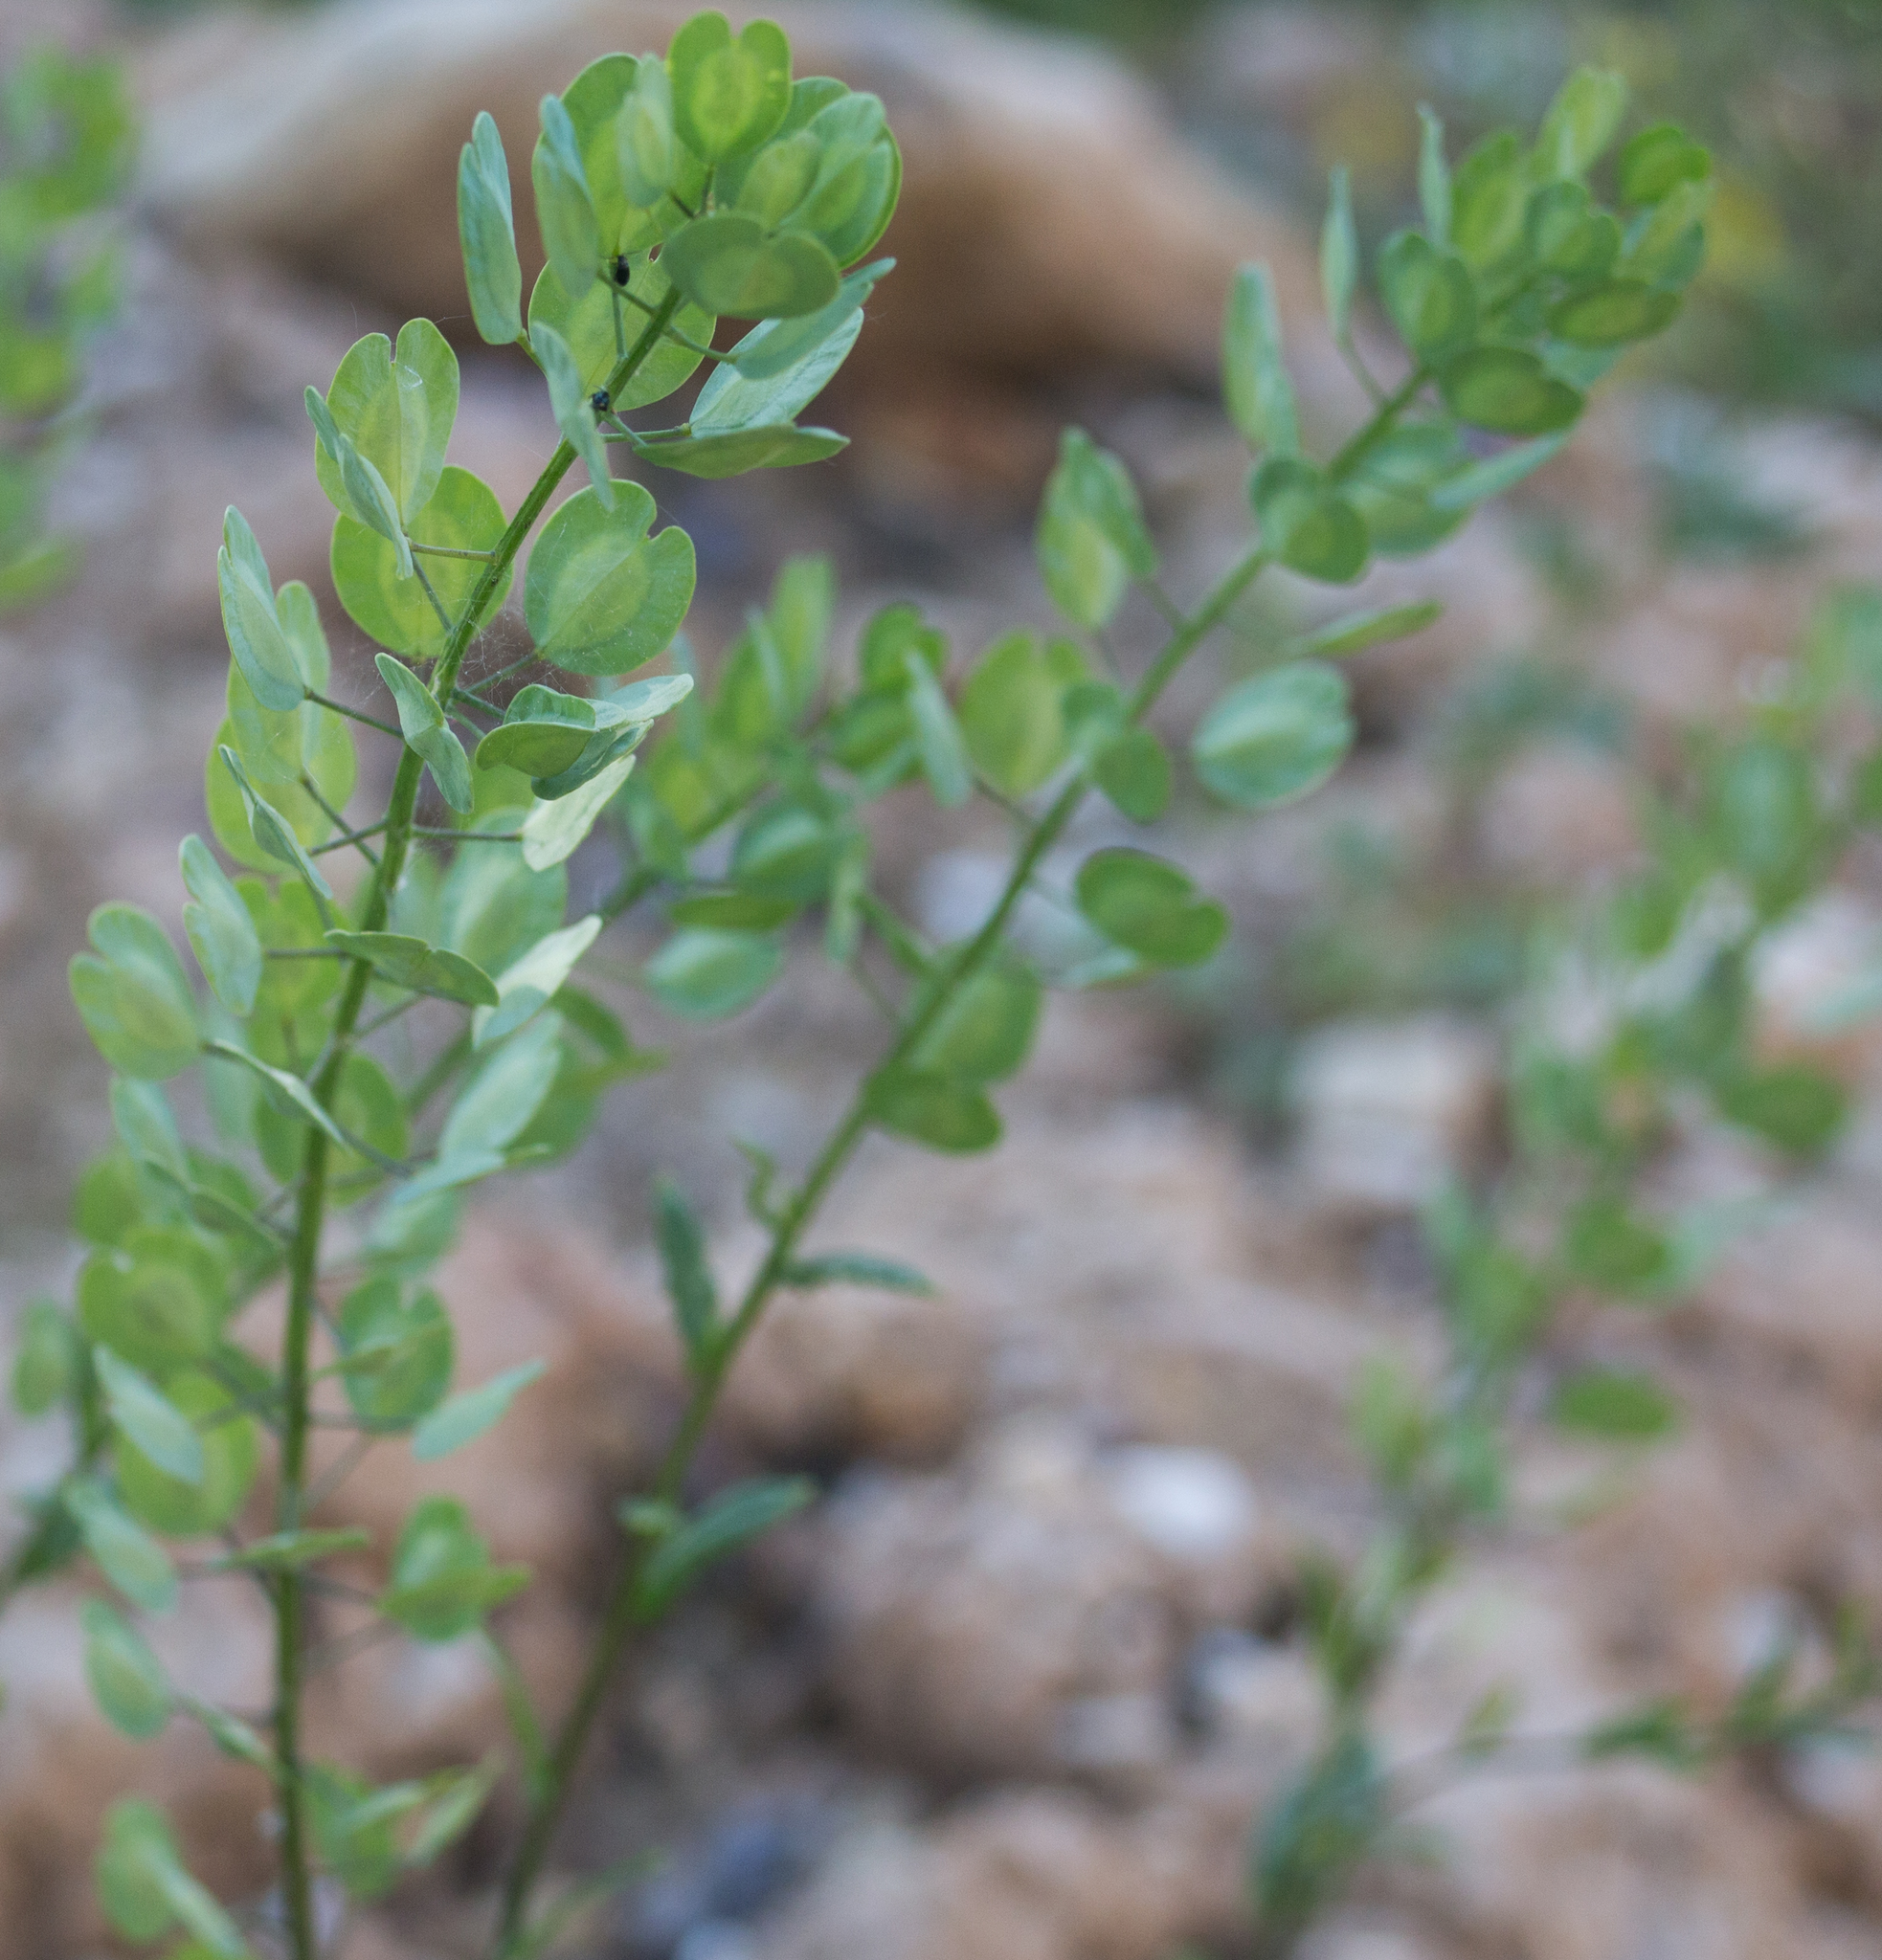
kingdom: Plantae
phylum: Tracheophyta
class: Magnoliopsida
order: Brassicales
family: Brassicaceae
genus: Thlaspi
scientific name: Thlaspi arvense
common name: Field pennycress
